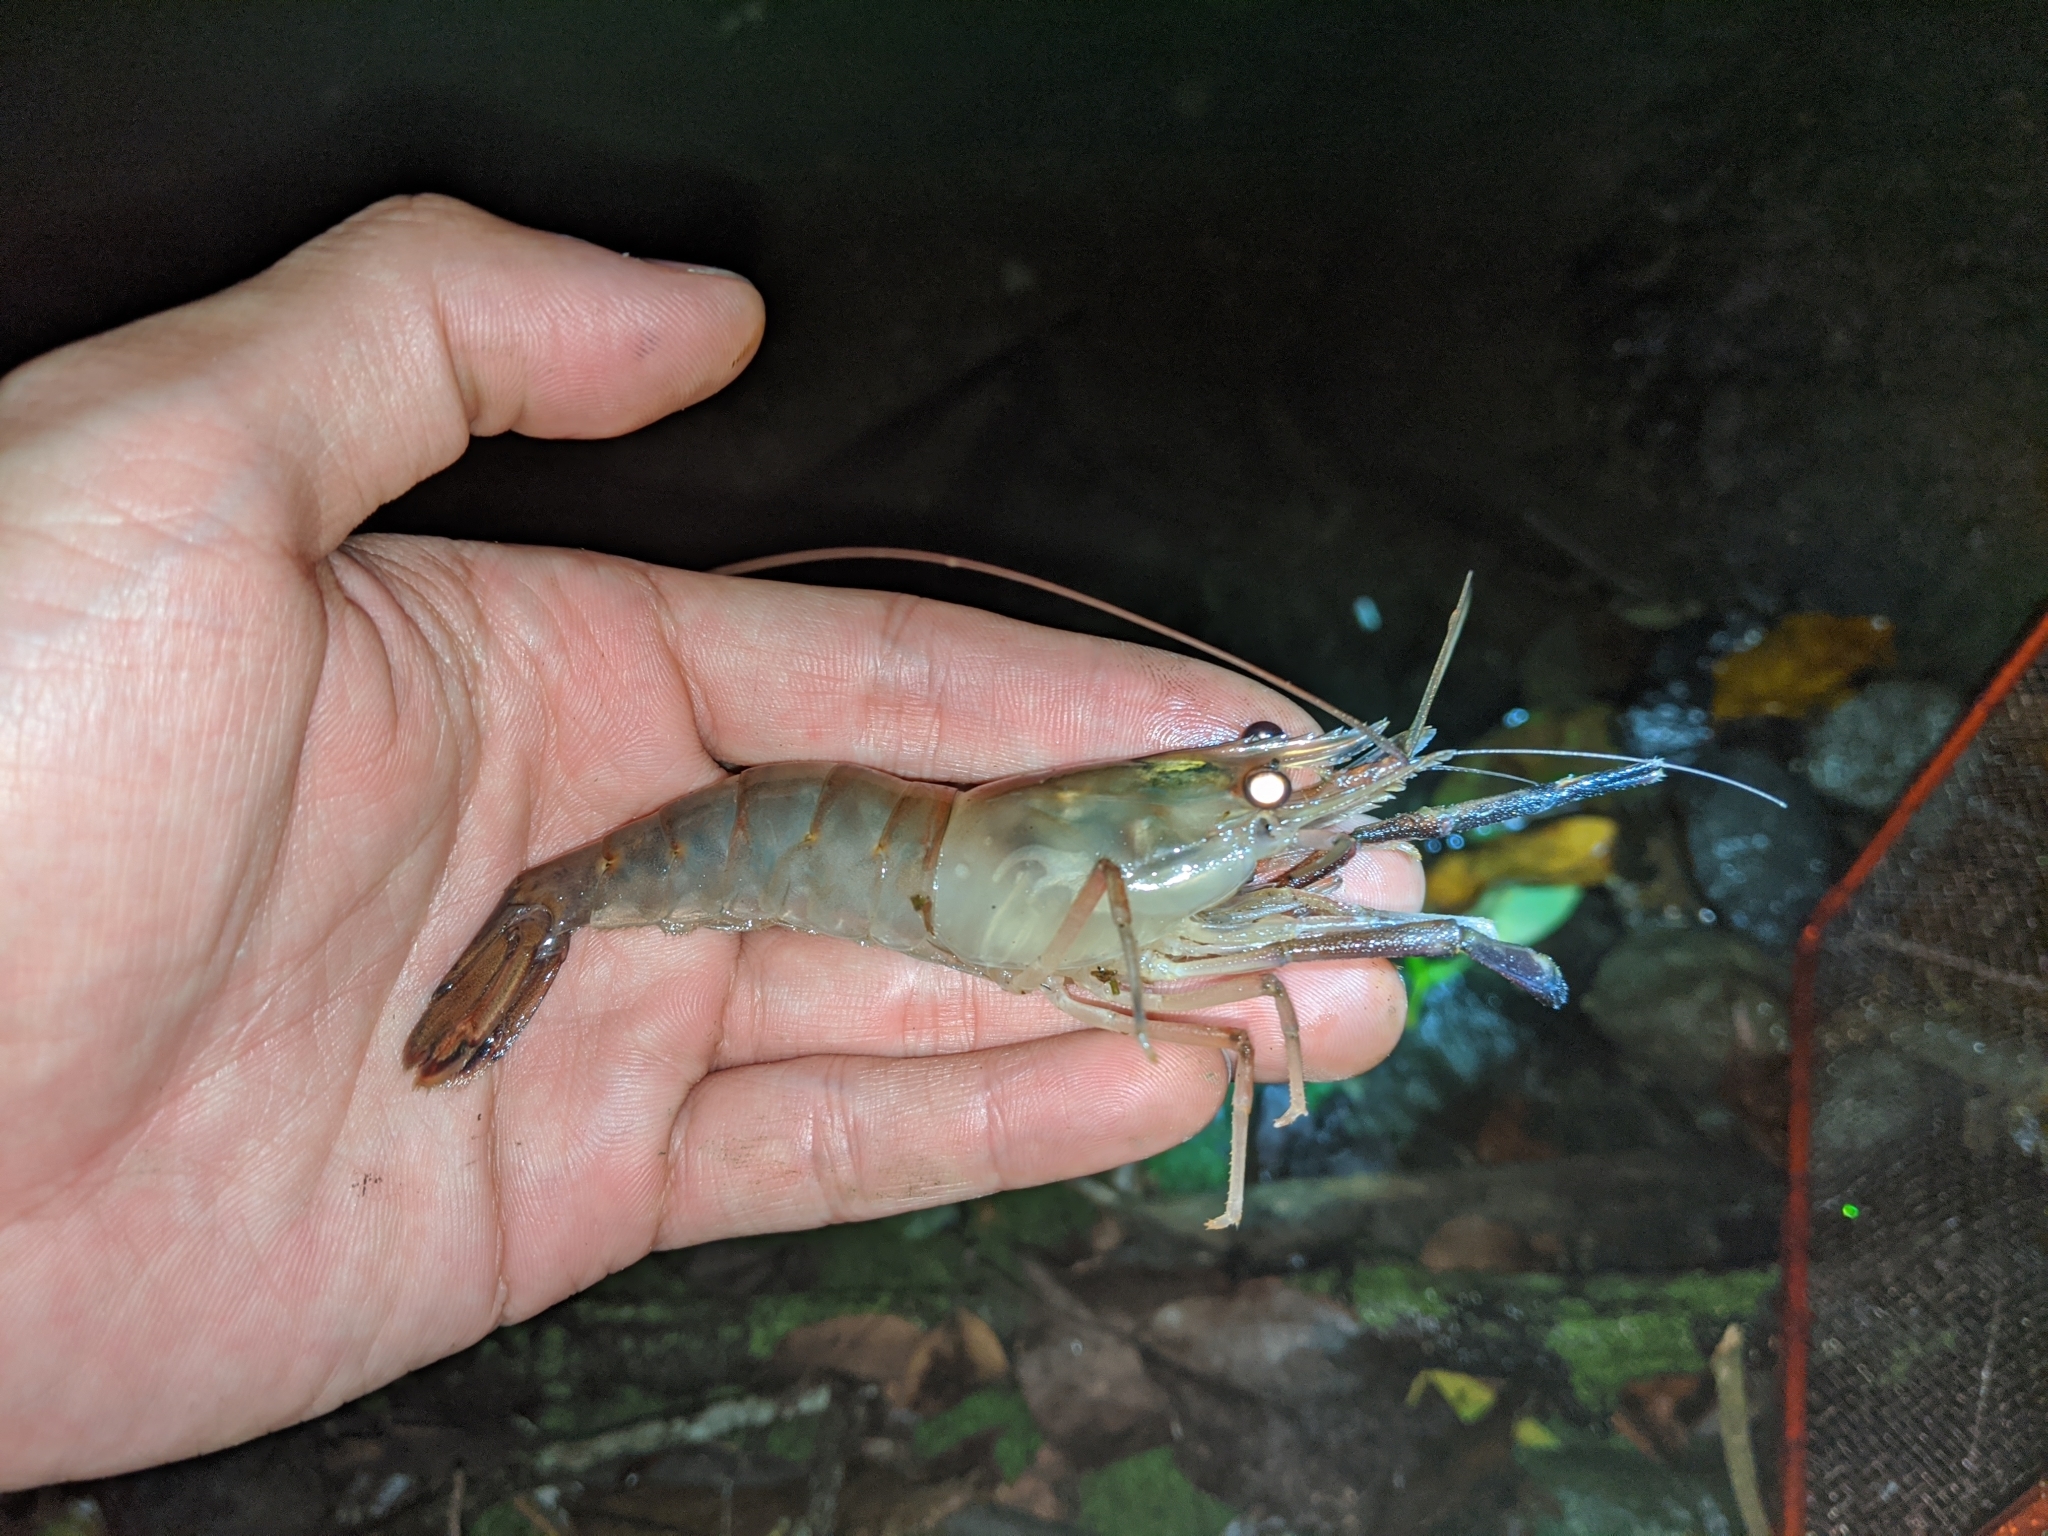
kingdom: Animalia
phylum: Arthropoda
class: Malacostraca
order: Decapoda
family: Palaemonidae
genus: Macrobrachium
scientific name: Macrobrachium lar
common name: Monkey river prawn
